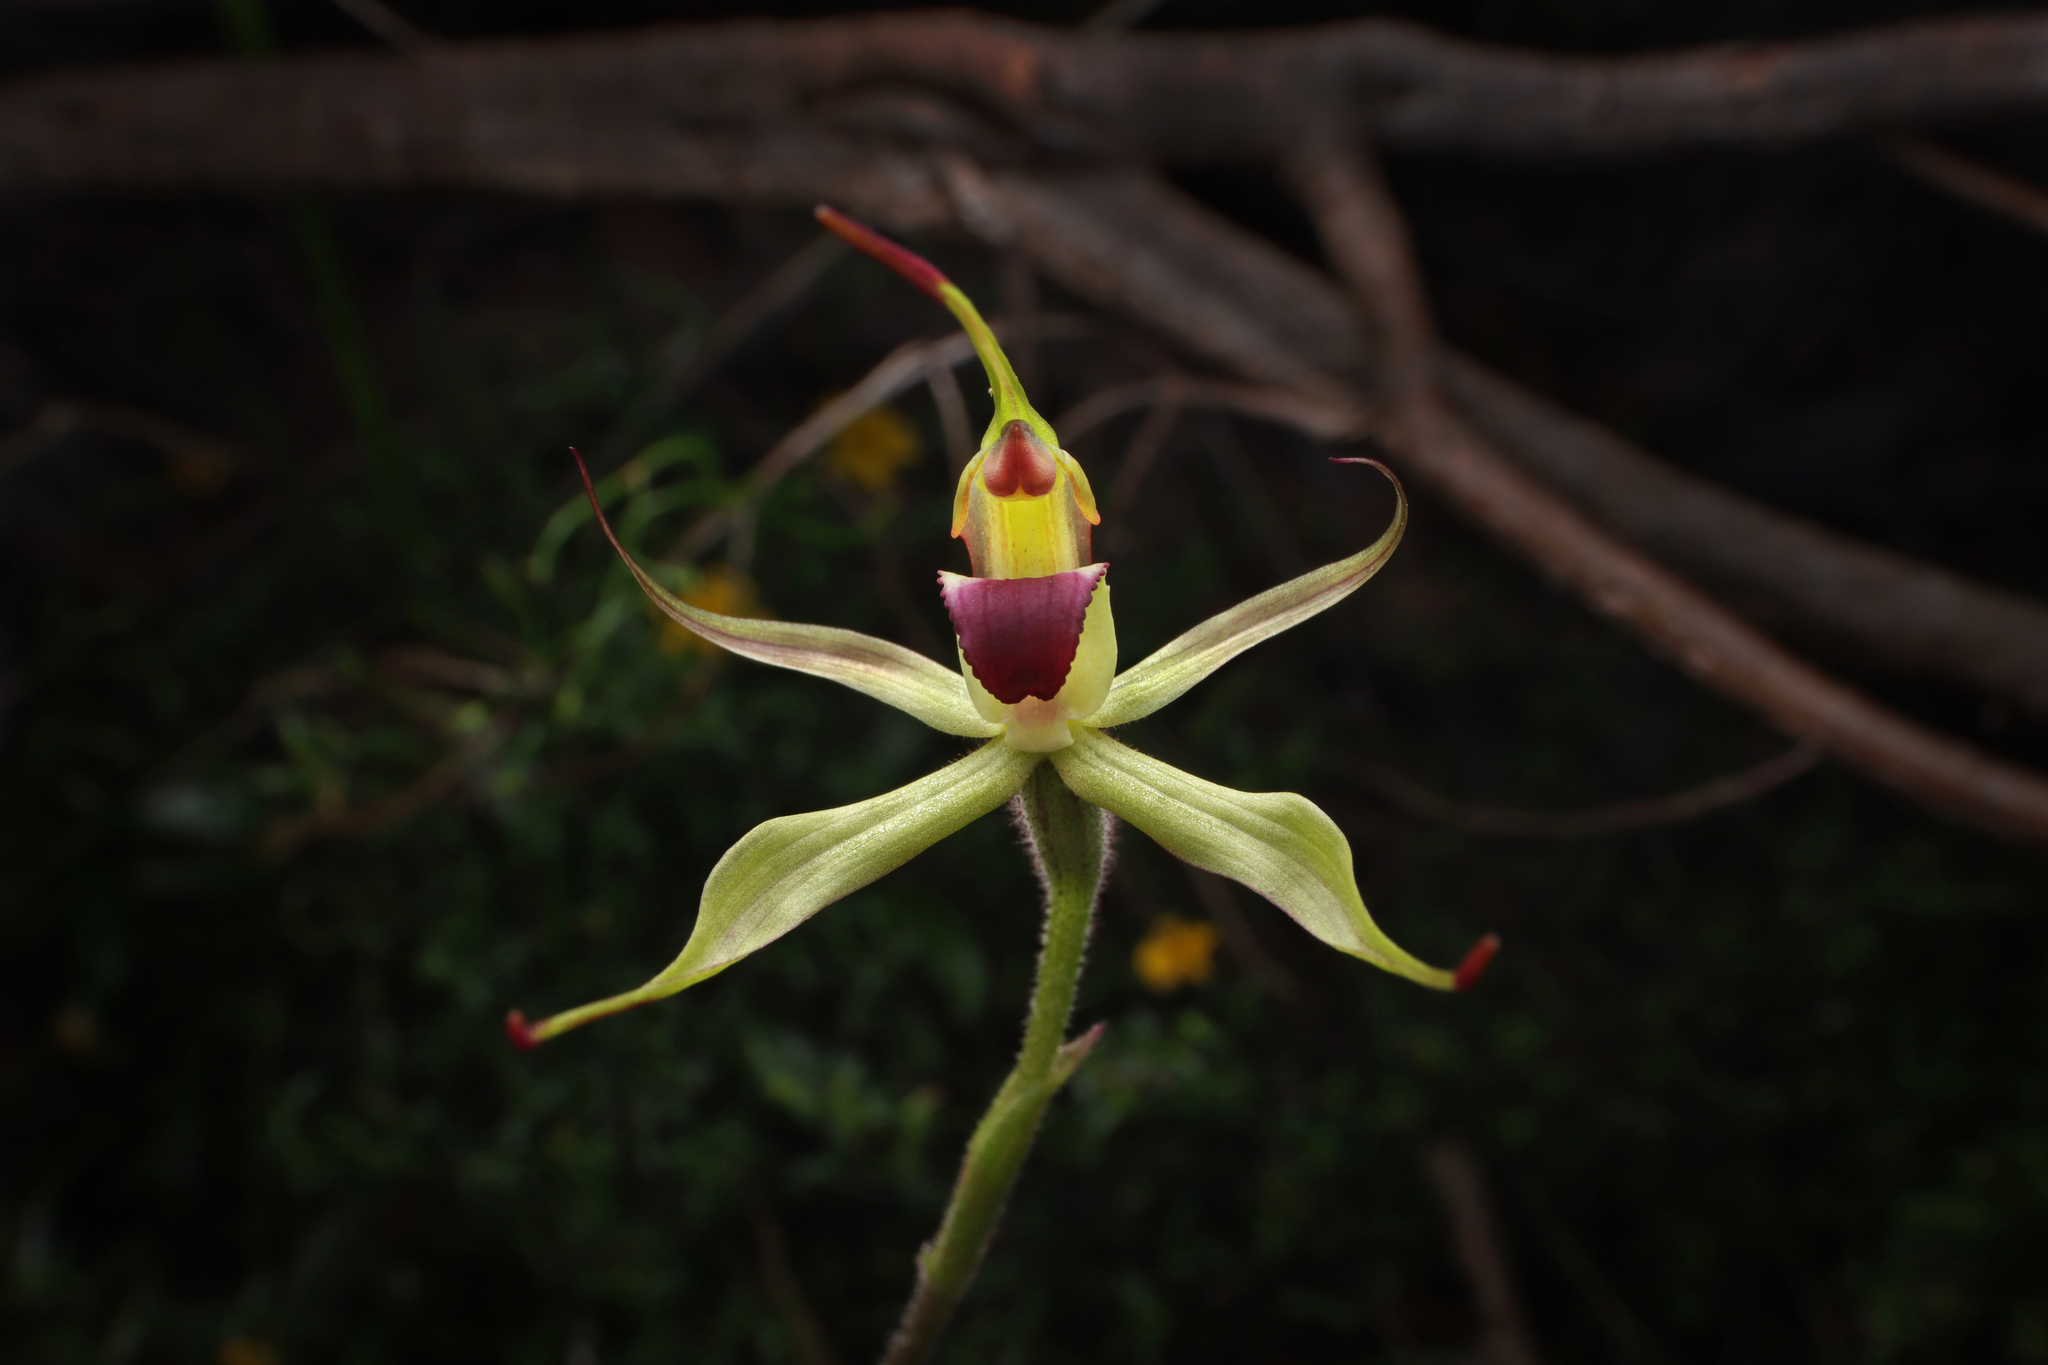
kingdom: Plantae
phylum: Tracheophyta
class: Liliopsida
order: Asparagales
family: Orchidaceae
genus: Caladenia
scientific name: Caladenia leptochila
